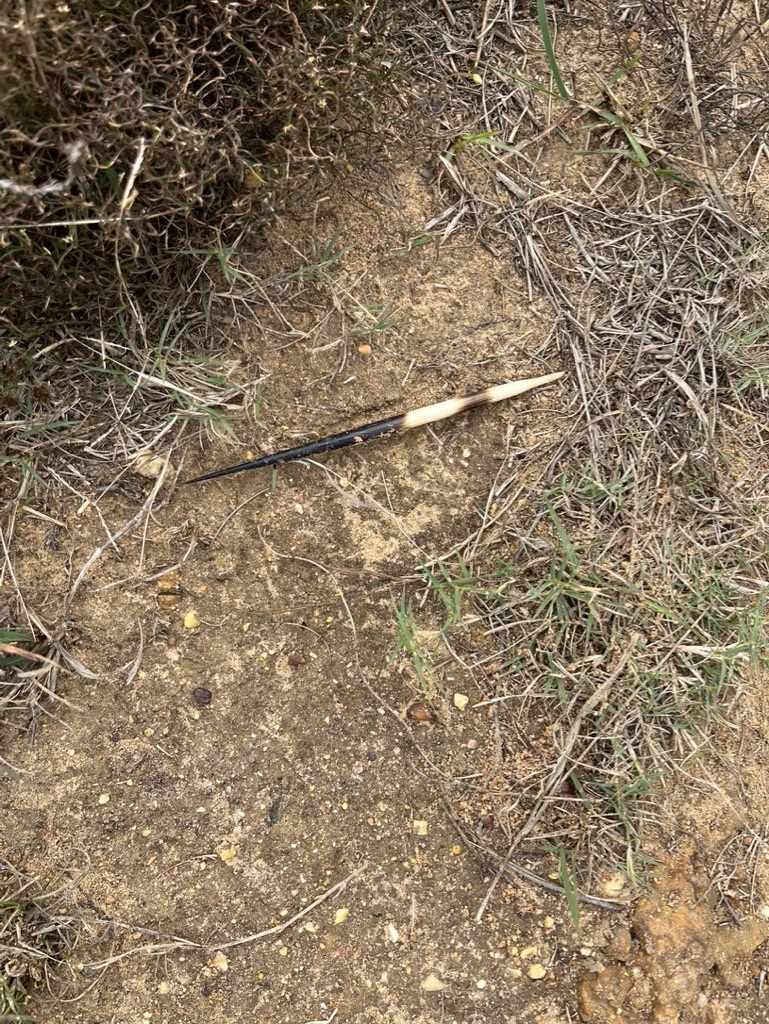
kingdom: Animalia
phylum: Chordata
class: Mammalia
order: Rodentia
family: Hystricidae
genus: Hystrix
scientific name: Hystrix africaeaustralis
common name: Cape porcupine
